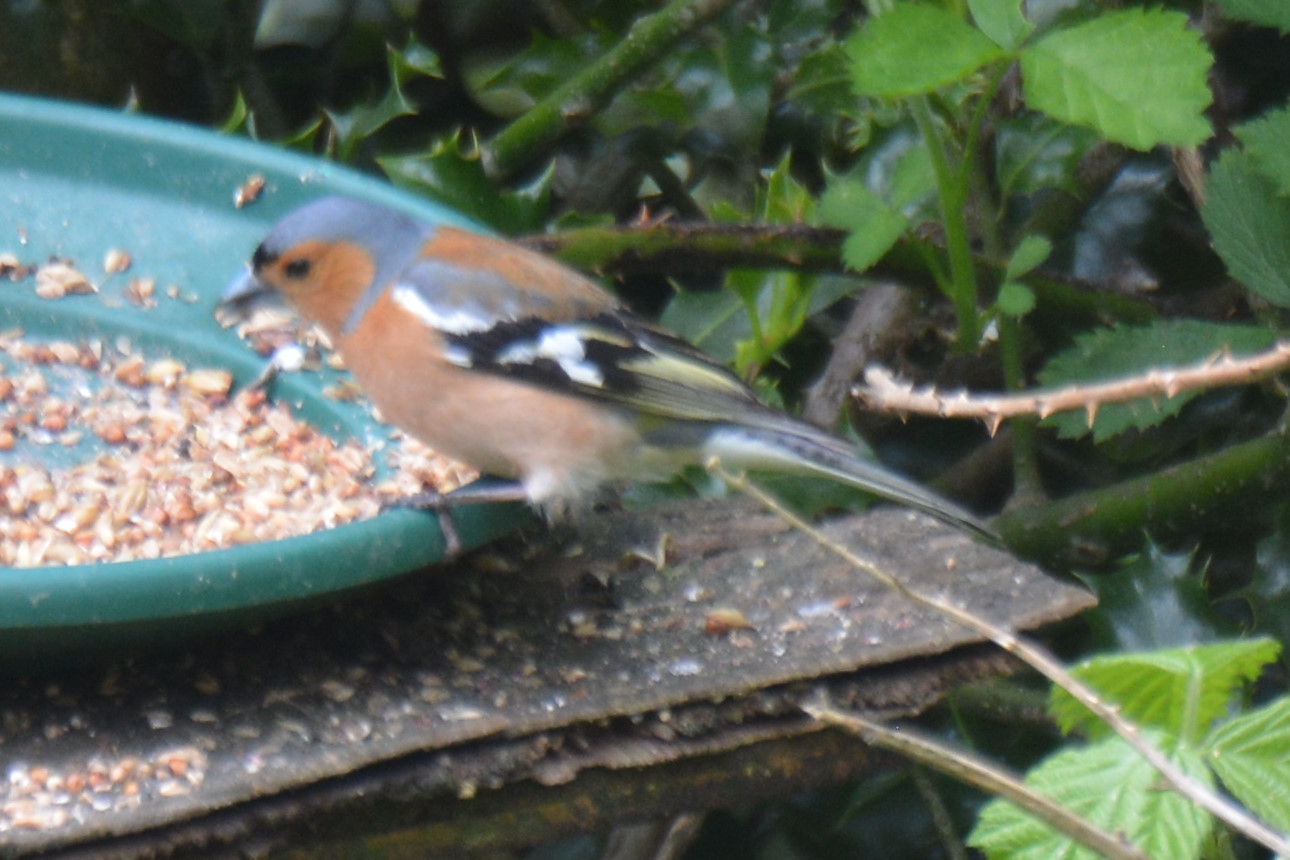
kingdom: Animalia
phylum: Chordata
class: Aves
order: Passeriformes
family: Fringillidae
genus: Fringilla
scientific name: Fringilla coelebs
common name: Common chaffinch
